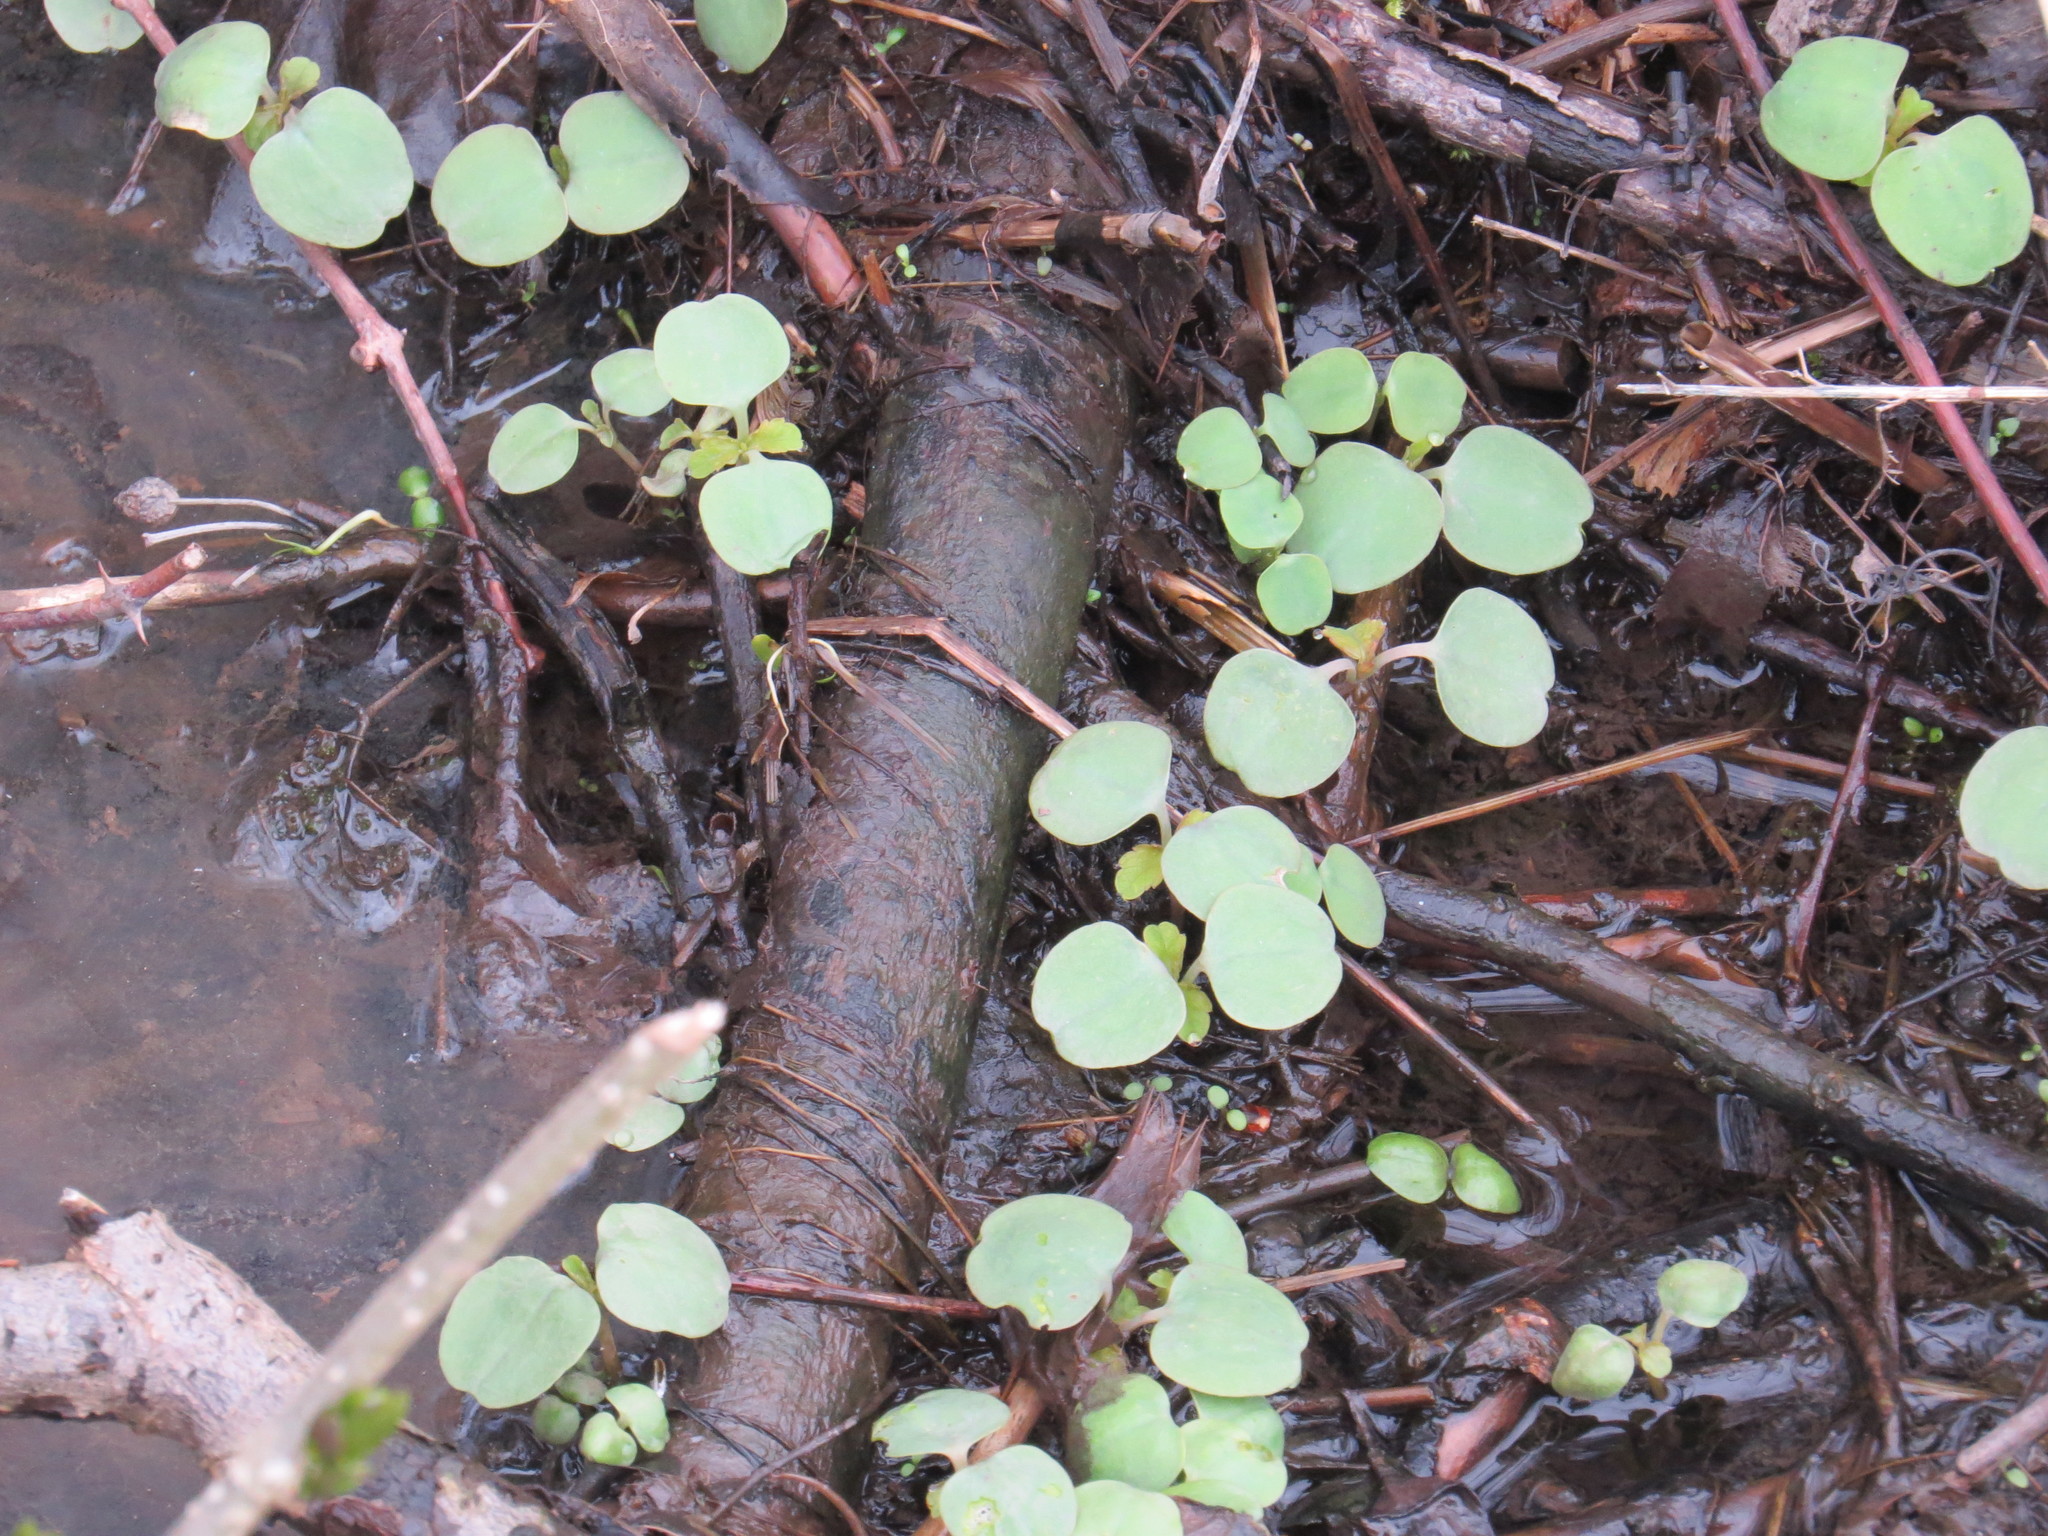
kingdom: Plantae
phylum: Tracheophyta
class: Magnoliopsida
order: Ericales
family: Balsaminaceae
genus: Impatiens
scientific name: Impatiens capensis
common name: Orange balsam
